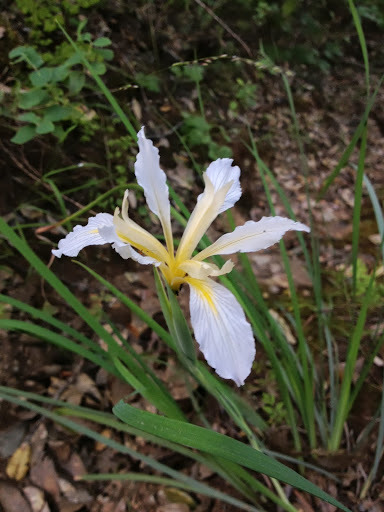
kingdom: Plantae
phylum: Tracheophyta
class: Liliopsida
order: Asparagales
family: Iridaceae
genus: Iris
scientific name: Iris macrosiphon
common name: Ground iris
